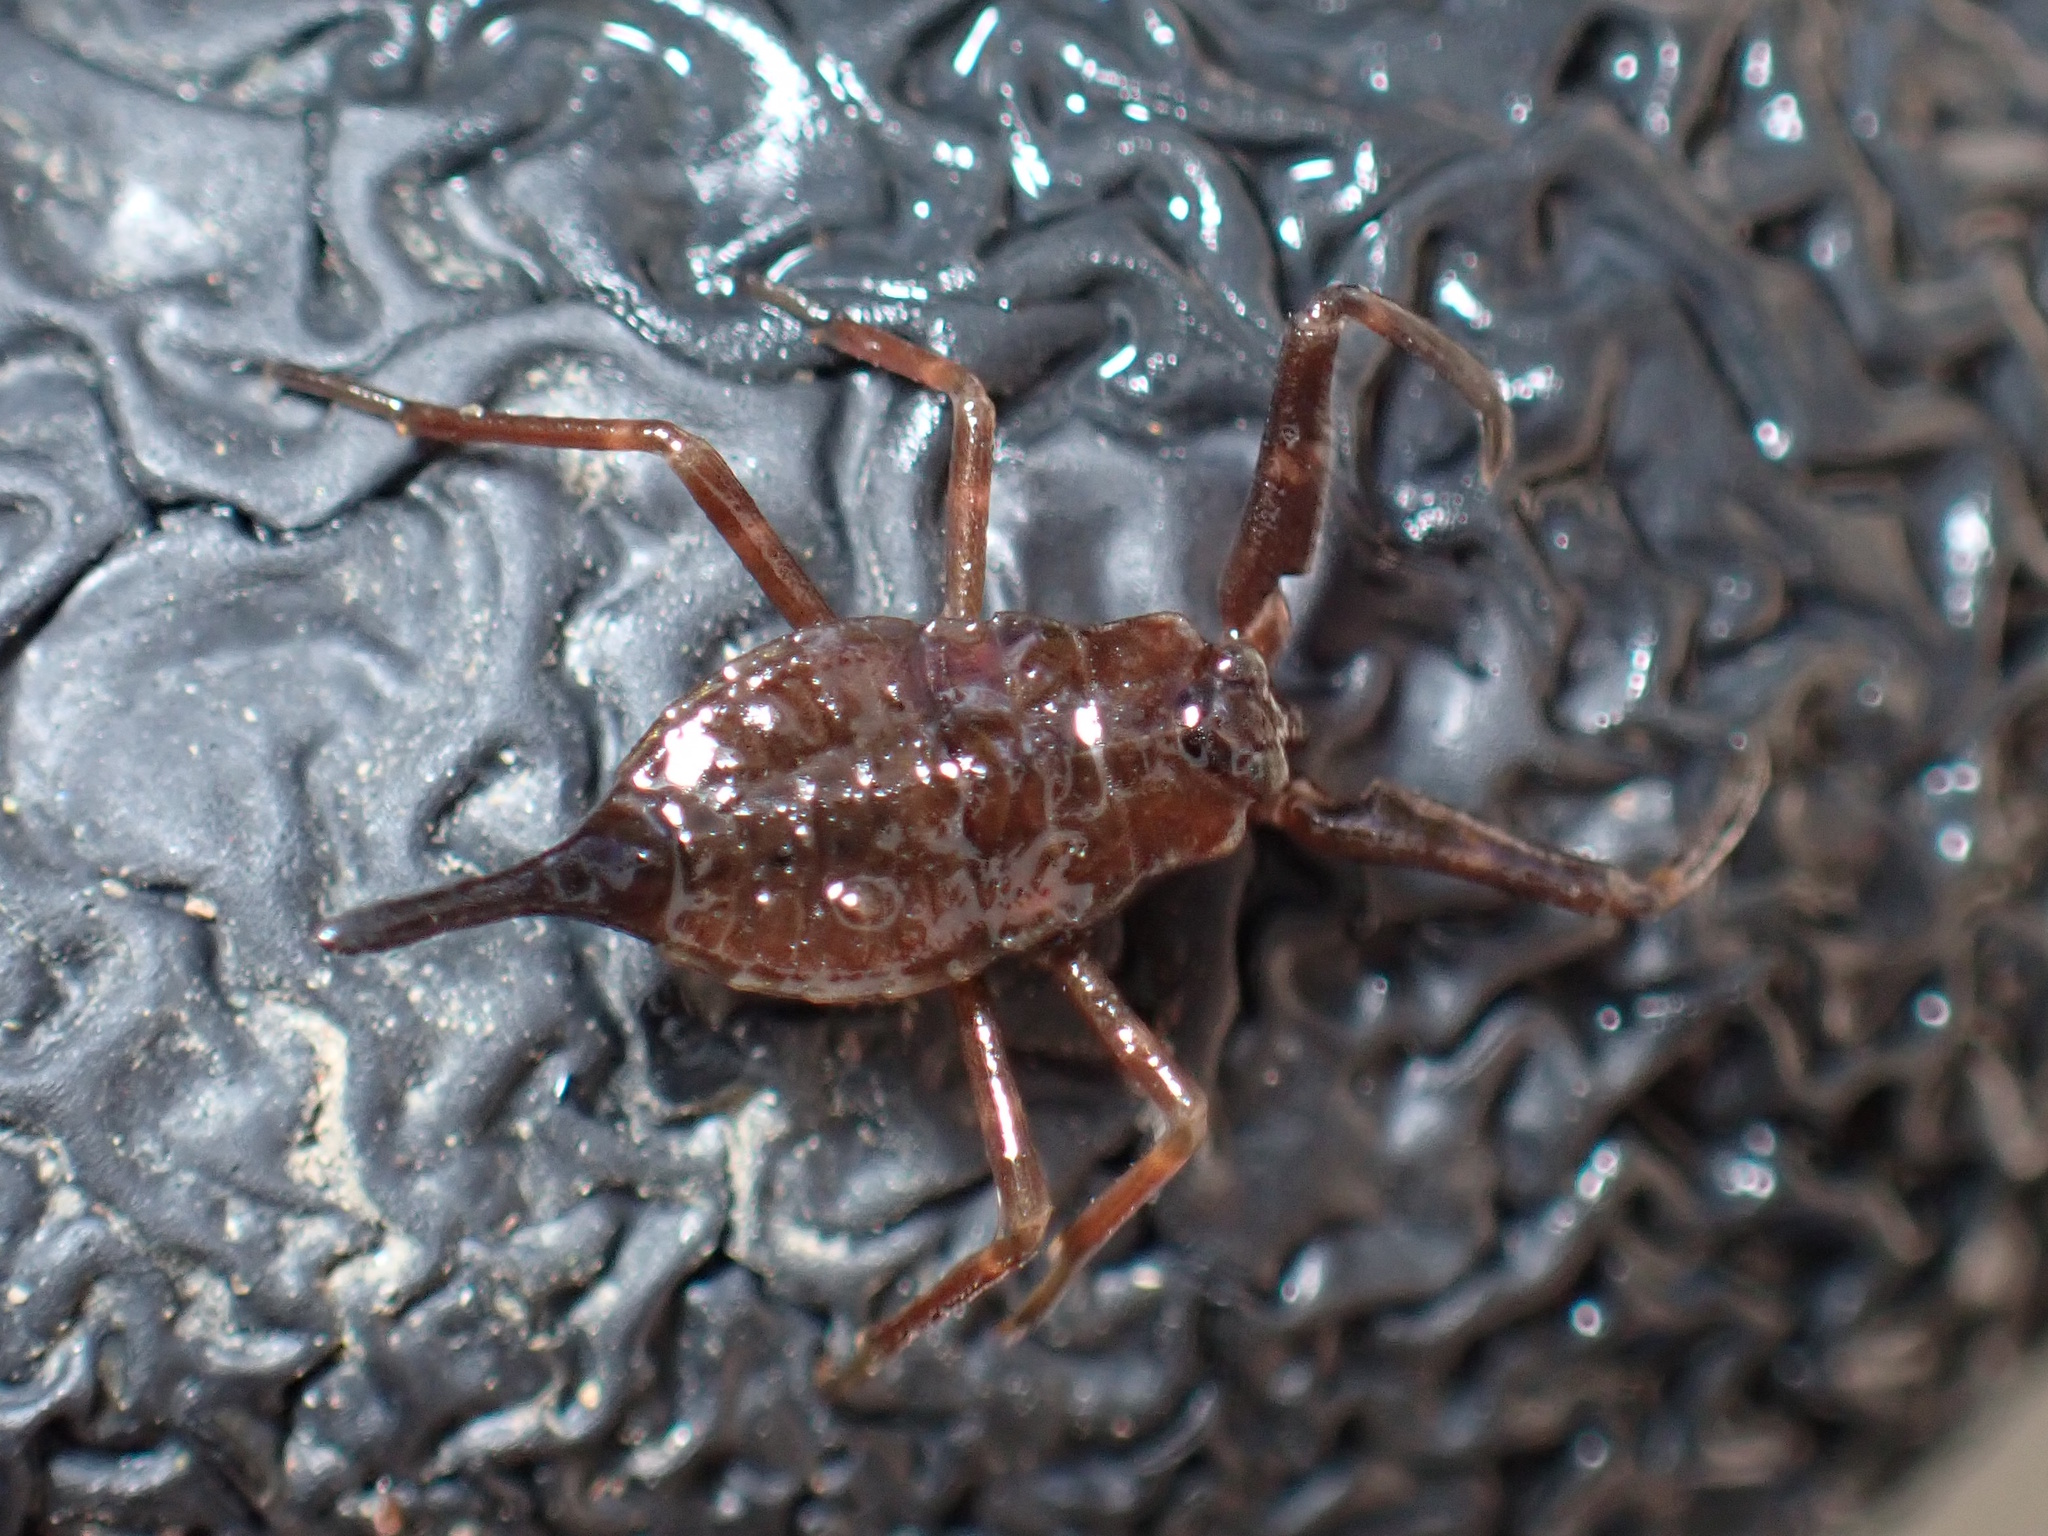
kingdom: Animalia
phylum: Arthropoda
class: Insecta
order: Hemiptera
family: Nepidae
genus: Laccotrephes
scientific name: Laccotrephes tristis
